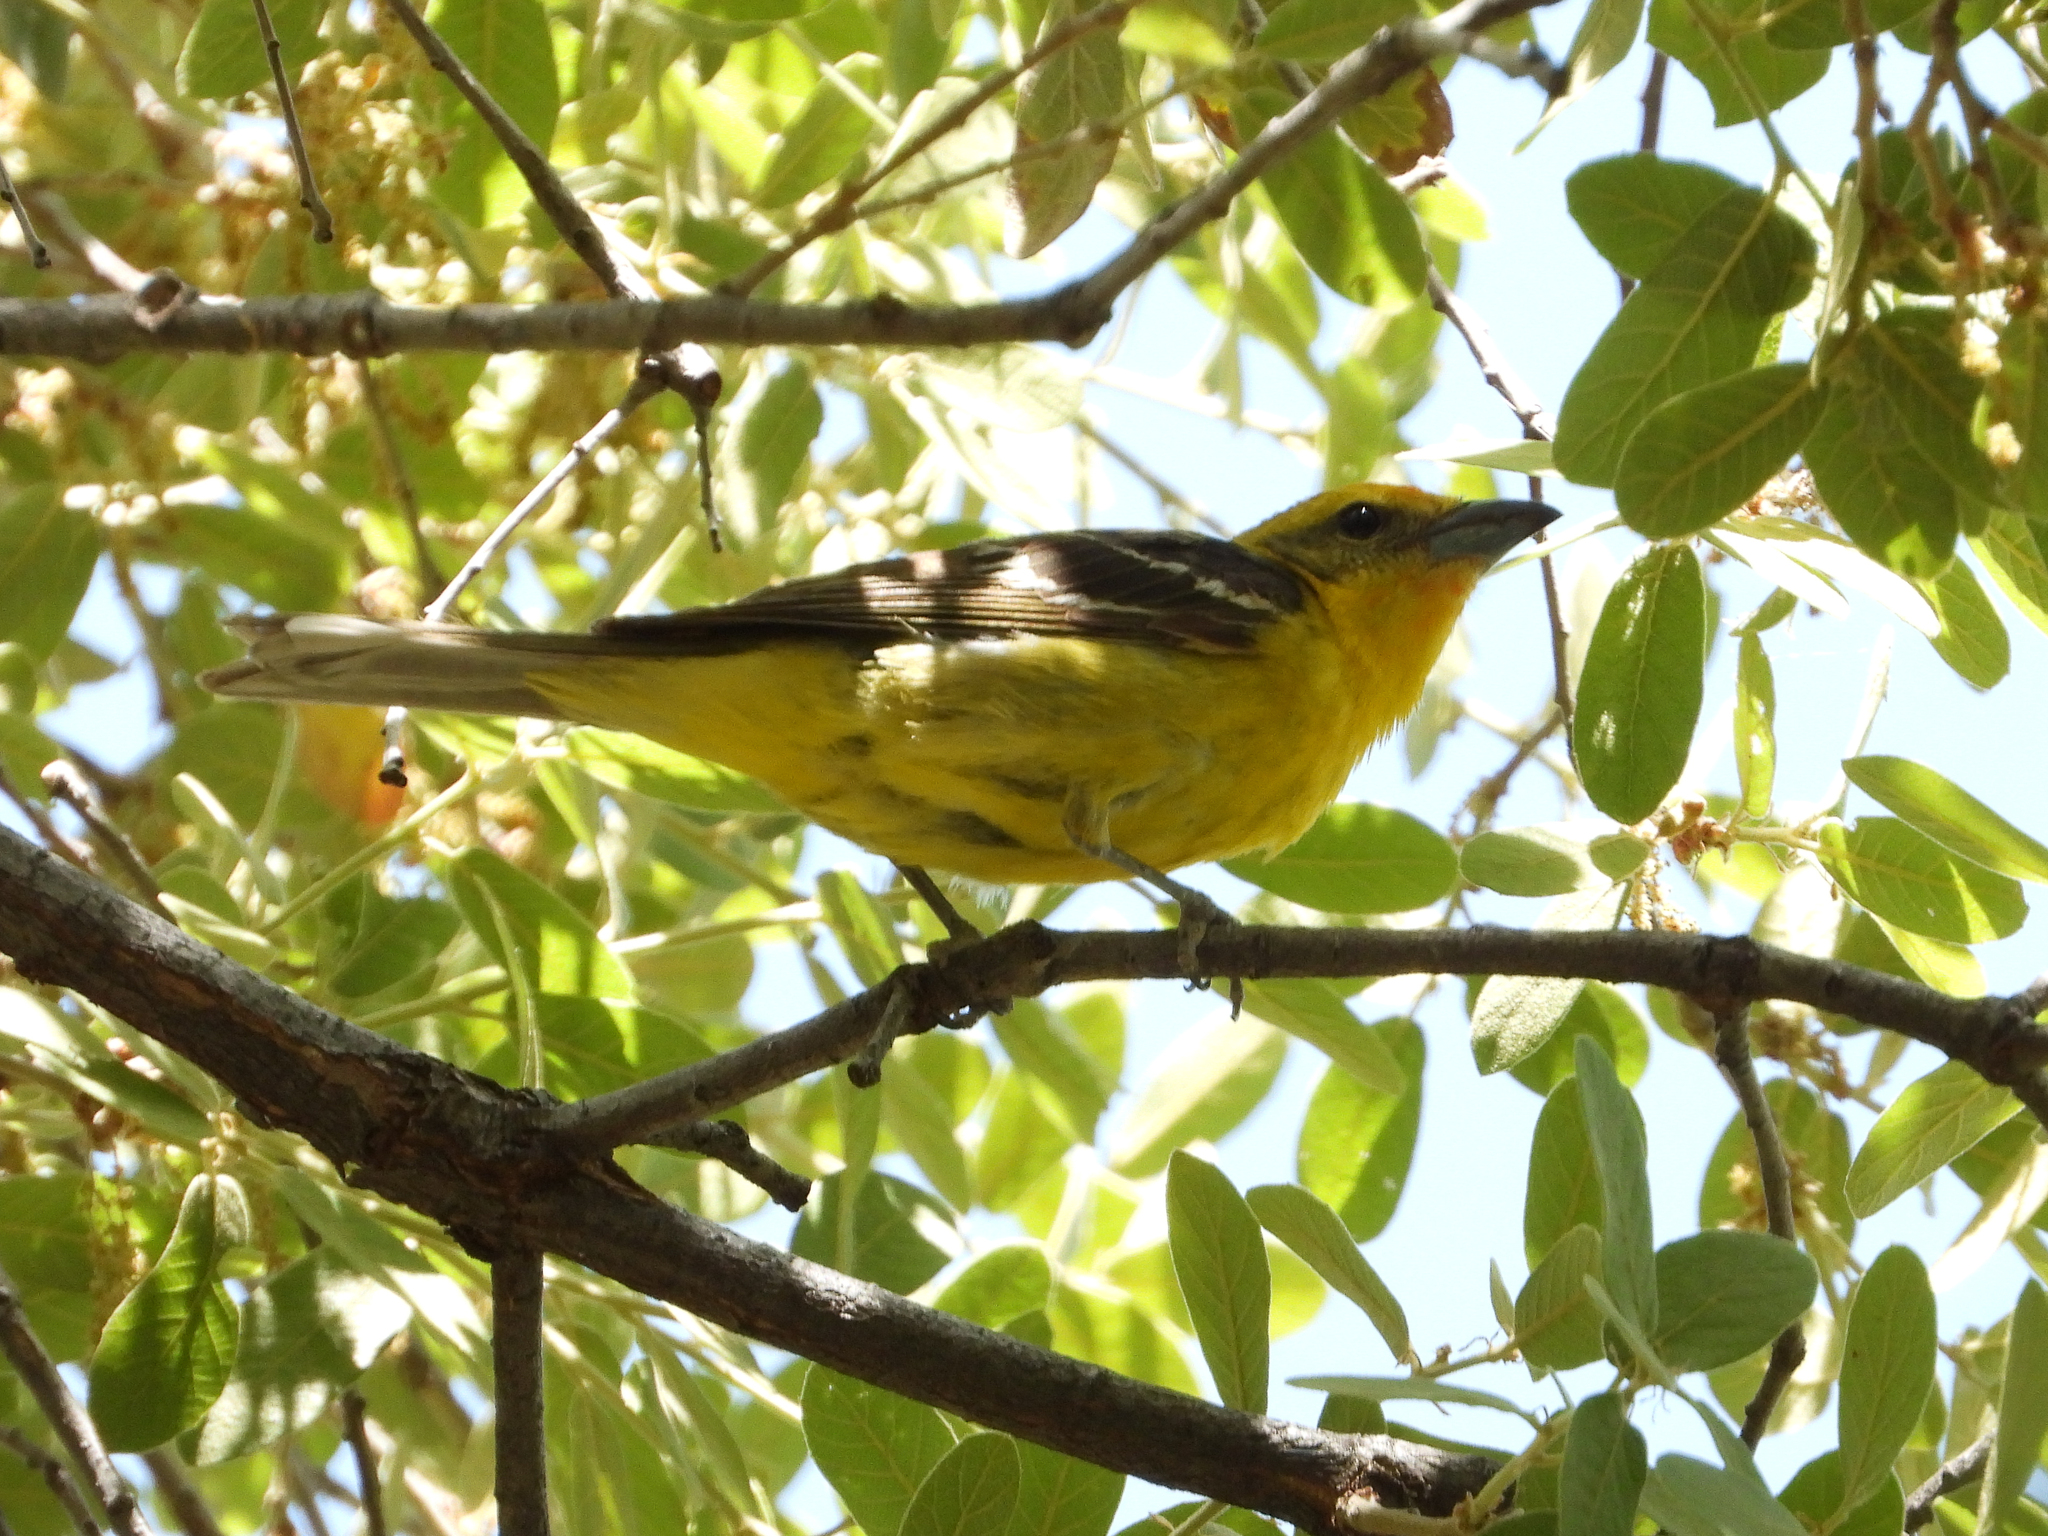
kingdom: Animalia
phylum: Chordata
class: Aves
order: Passeriformes
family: Cardinalidae
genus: Piranga
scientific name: Piranga bidentata
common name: Flame-colored tanager
